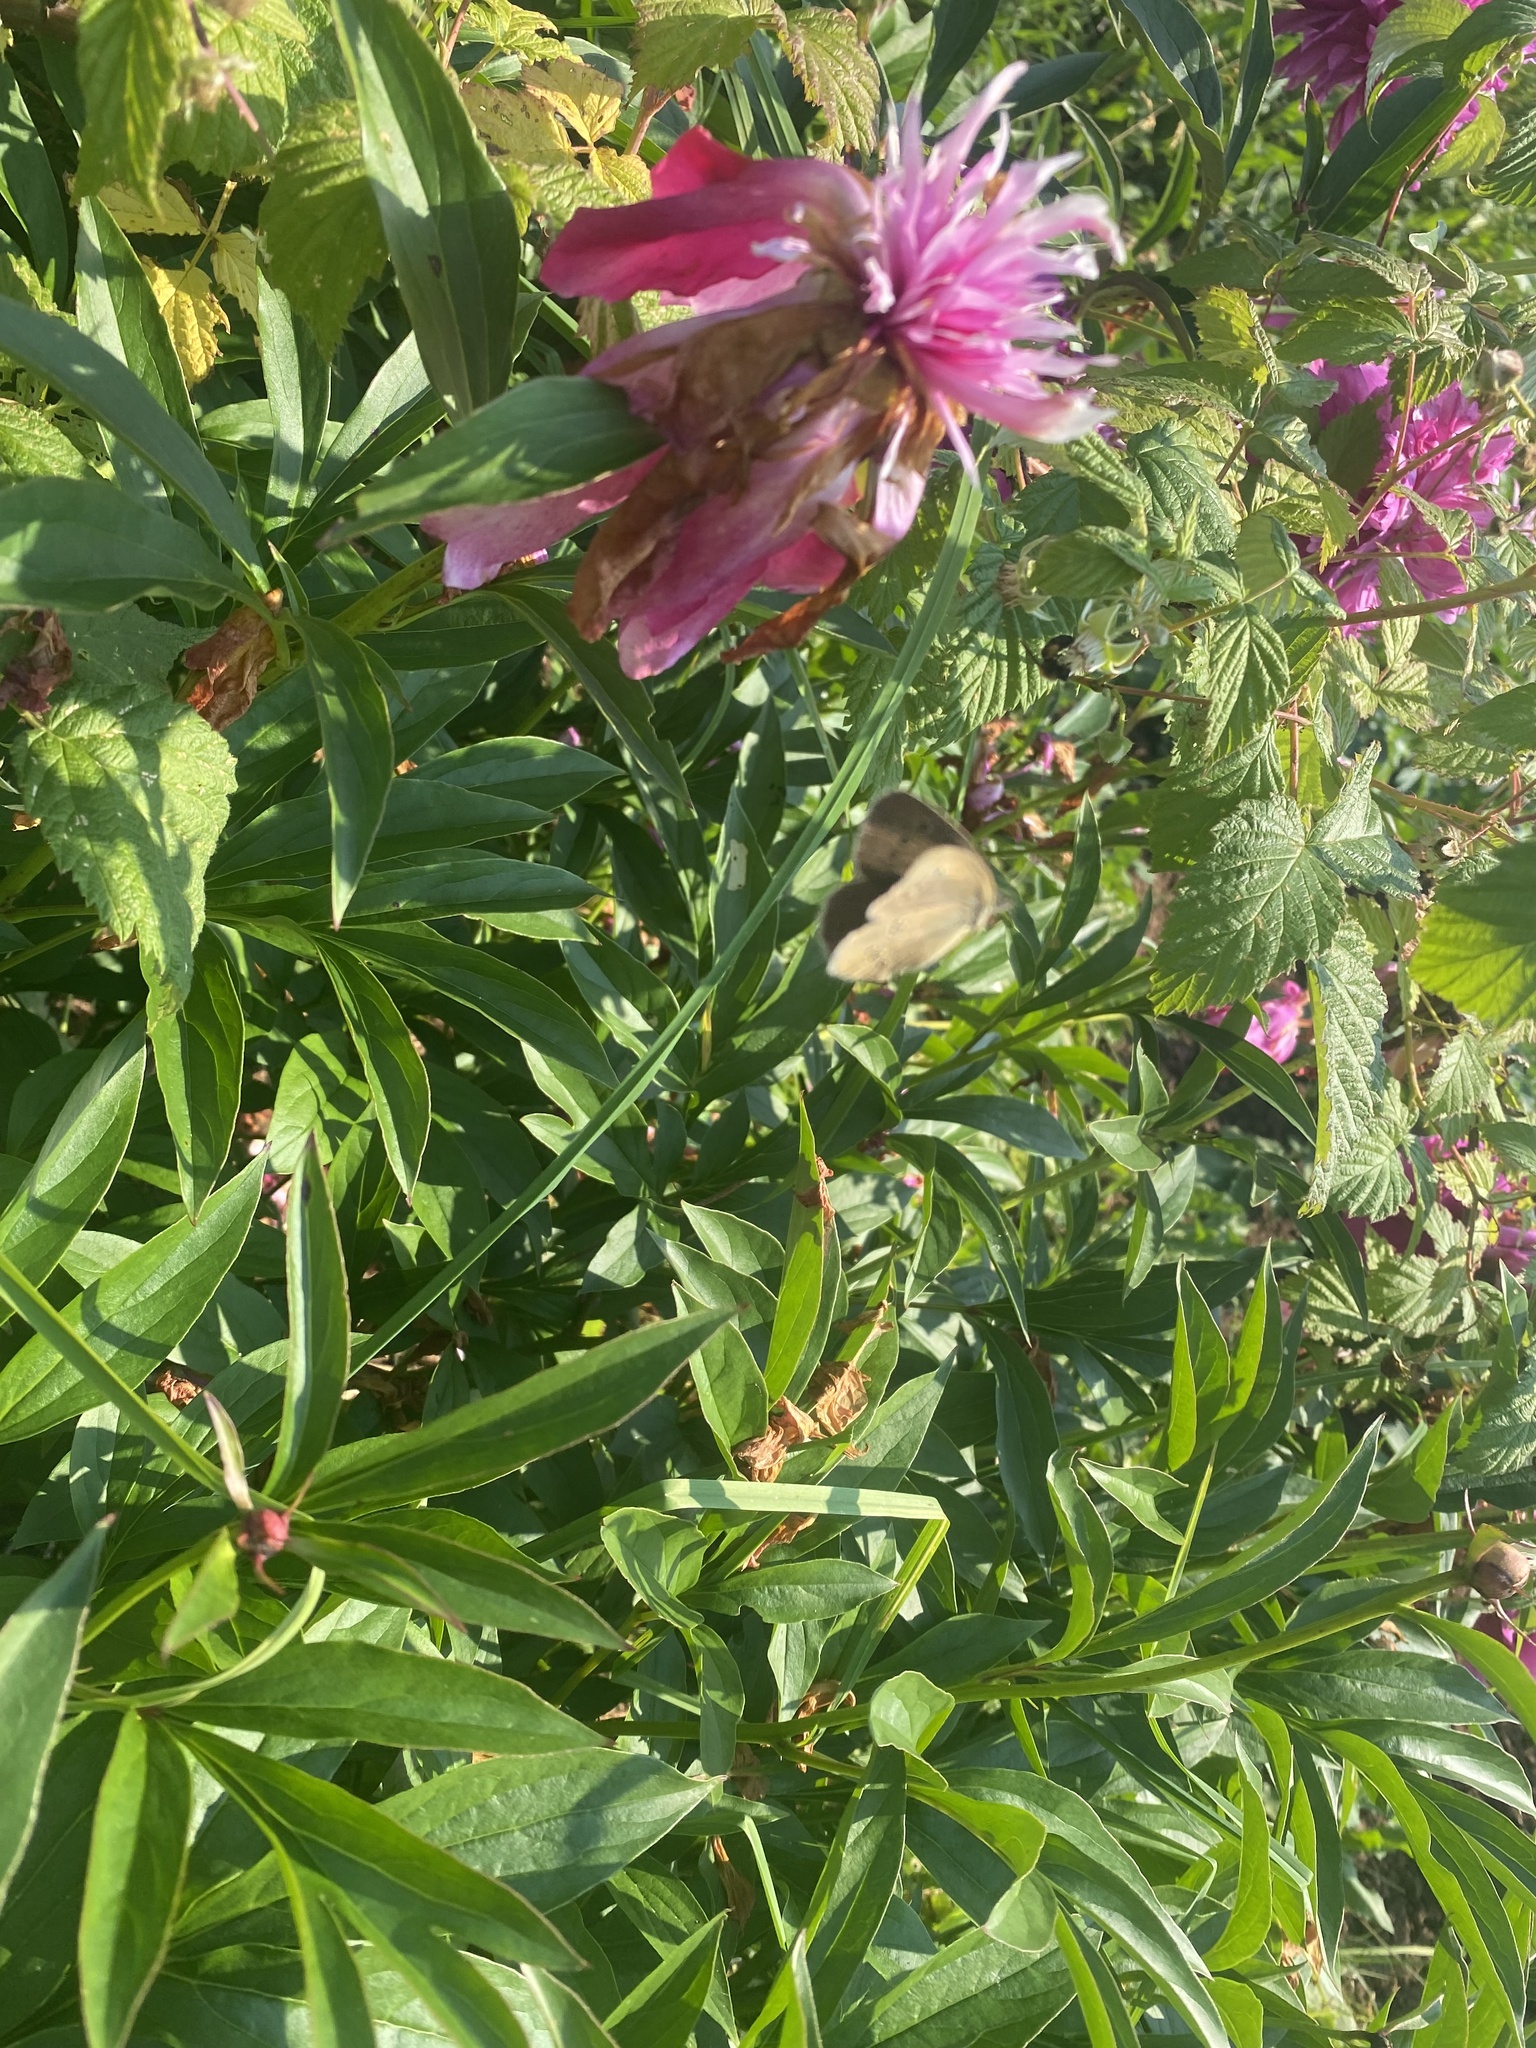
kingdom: Animalia
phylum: Arthropoda
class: Insecta
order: Lepidoptera
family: Nymphalidae
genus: Aphantopus
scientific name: Aphantopus hyperantus
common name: Ringlet
